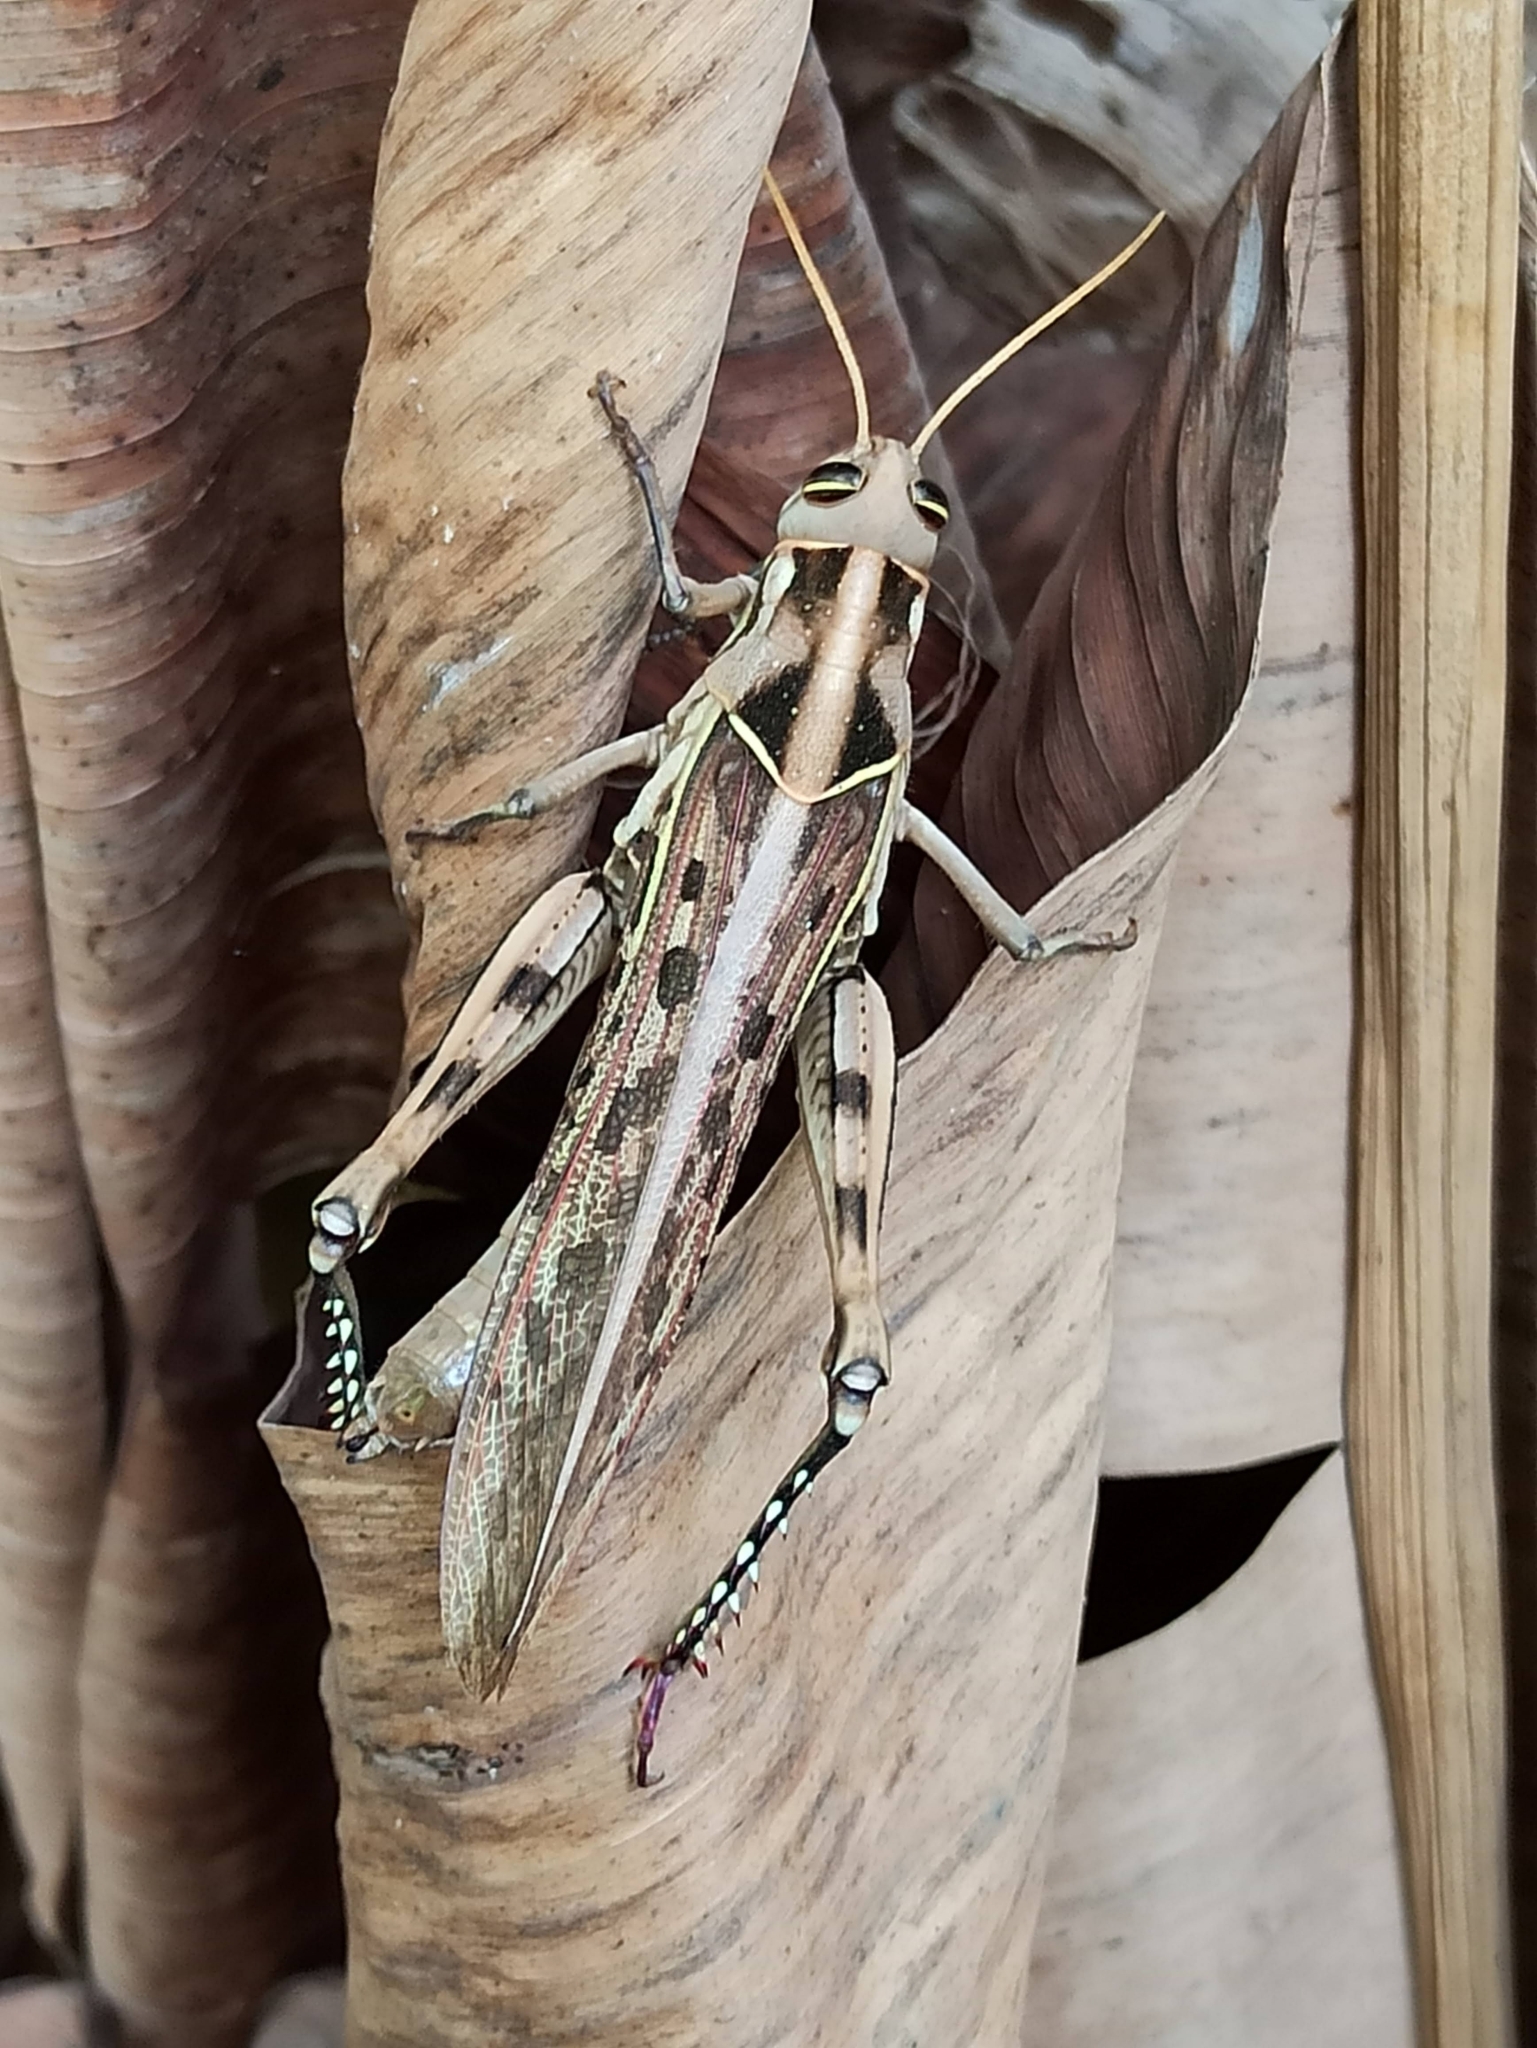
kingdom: Animalia
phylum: Arthropoda
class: Insecta
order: Orthoptera
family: Acrididae
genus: Cyrtacanthacris
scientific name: Cyrtacanthacris tatarica
